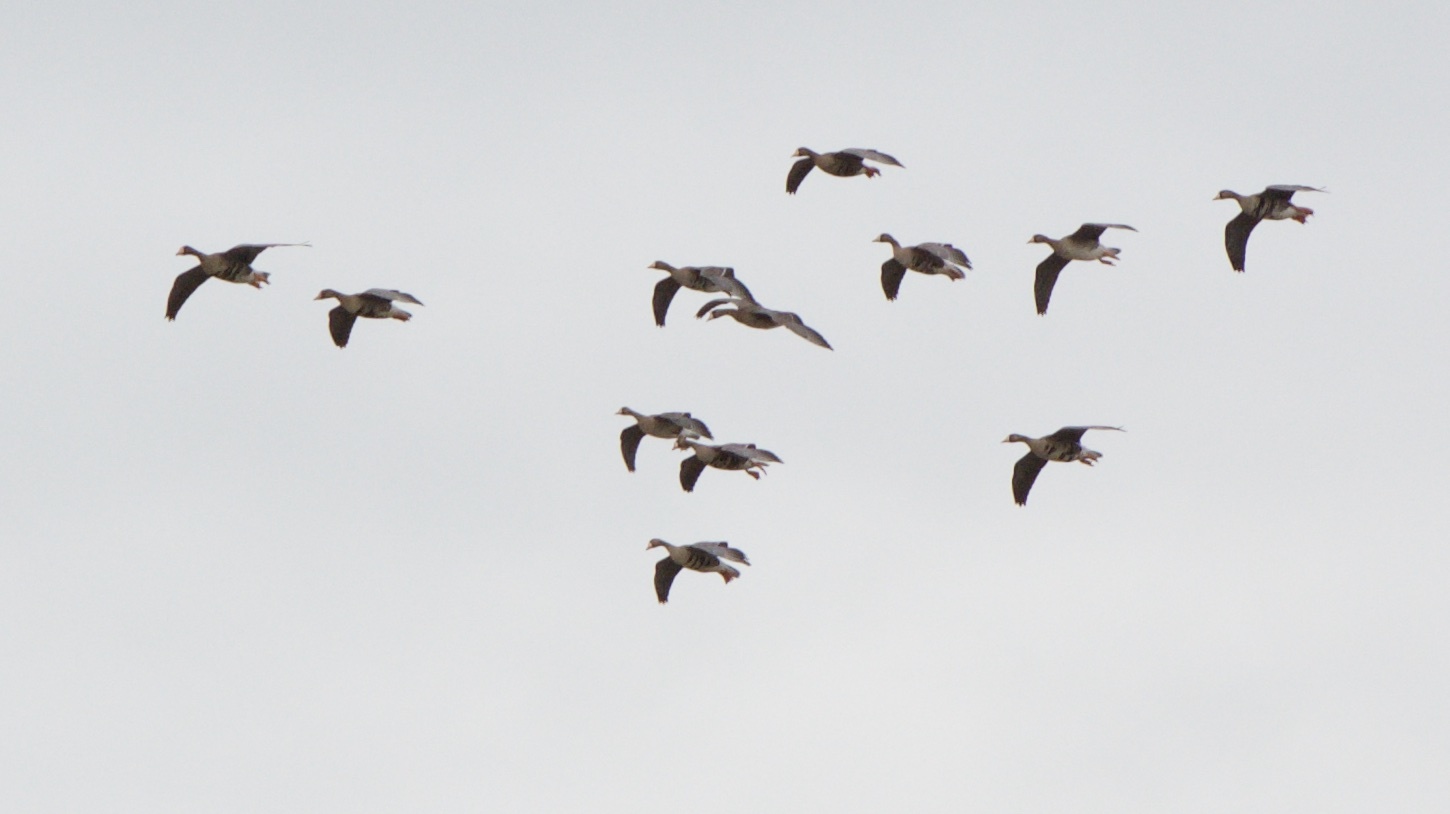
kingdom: Animalia
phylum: Chordata
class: Aves
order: Anseriformes
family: Anatidae
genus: Anser
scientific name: Anser albifrons
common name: Greater white-fronted goose
